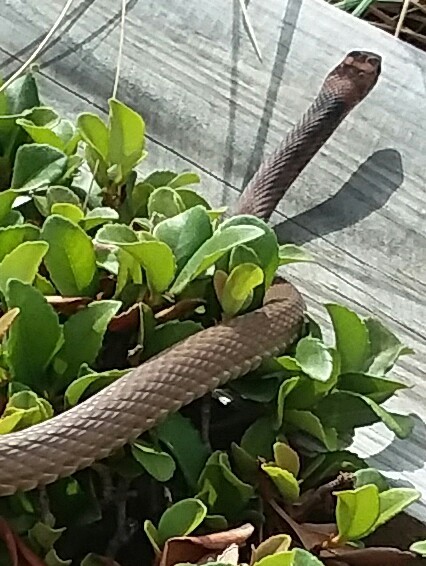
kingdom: Animalia
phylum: Chordata
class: Squamata
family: Colubridae
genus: Masticophis
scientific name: Masticophis flagellum
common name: Coachwhip
